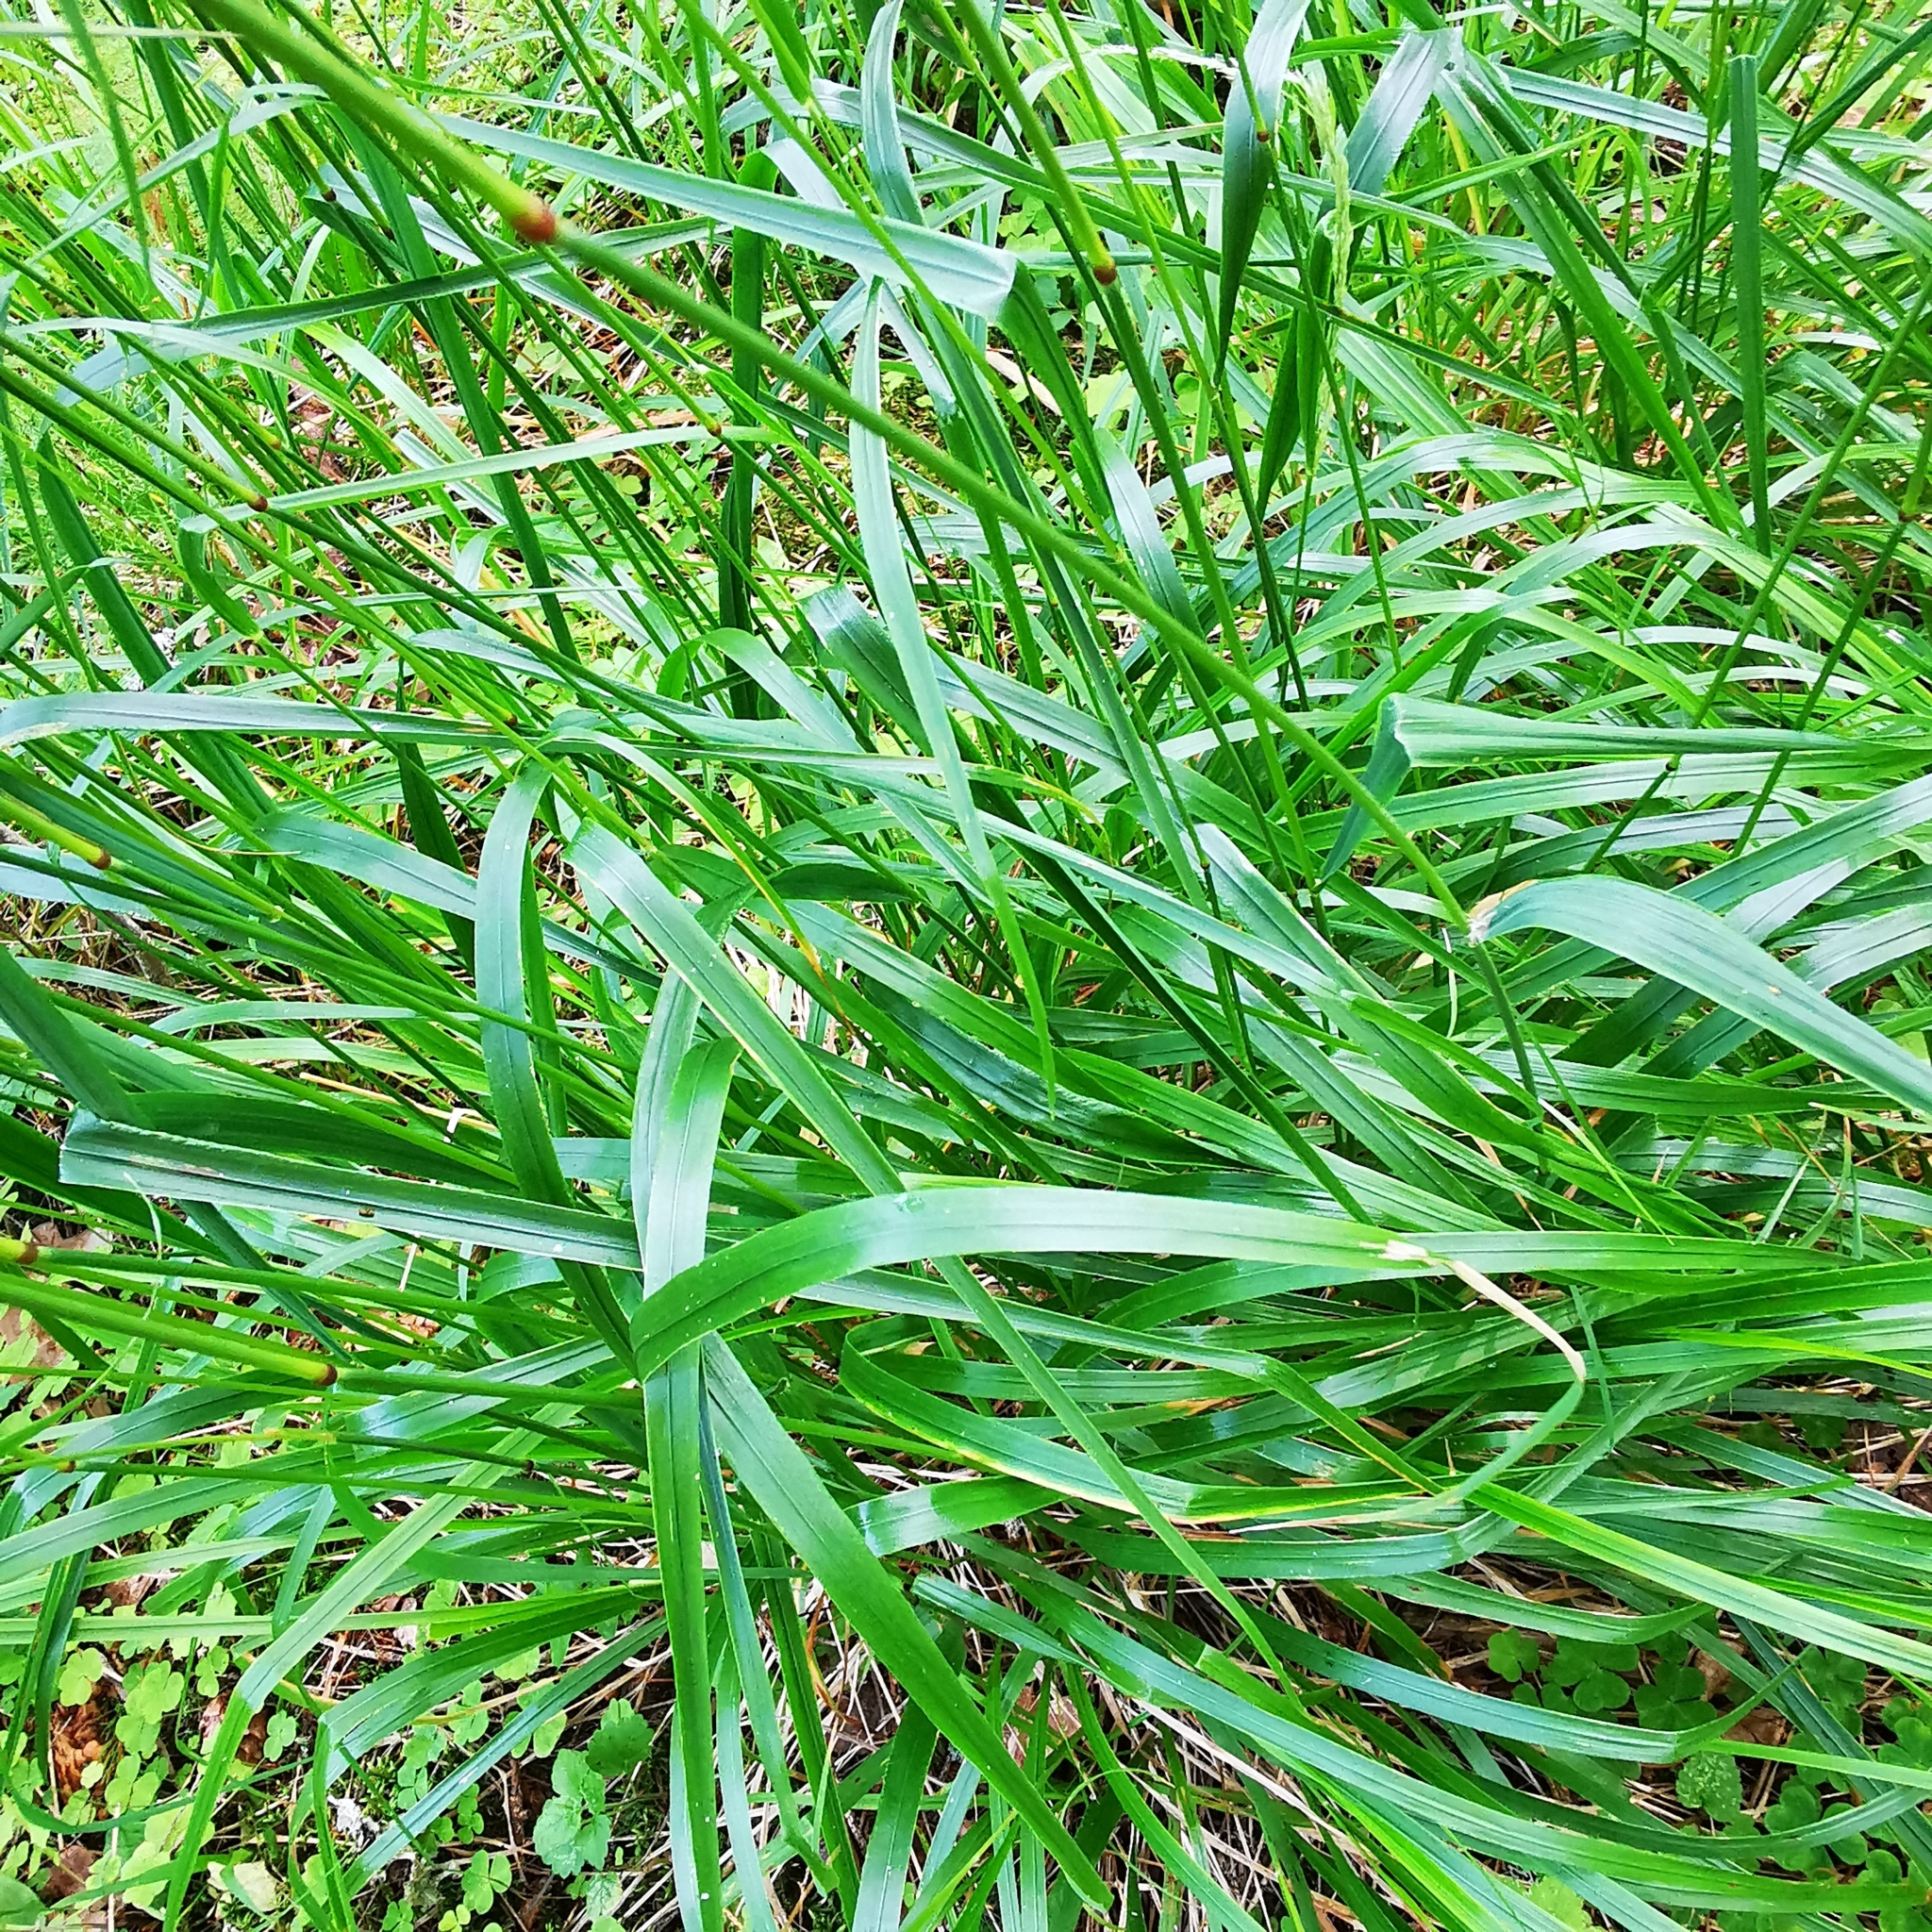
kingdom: Plantae
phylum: Tracheophyta
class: Liliopsida
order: Poales
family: Poaceae
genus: Calamagrostis
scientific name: Calamagrostis arundinacea
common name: Metskastik
